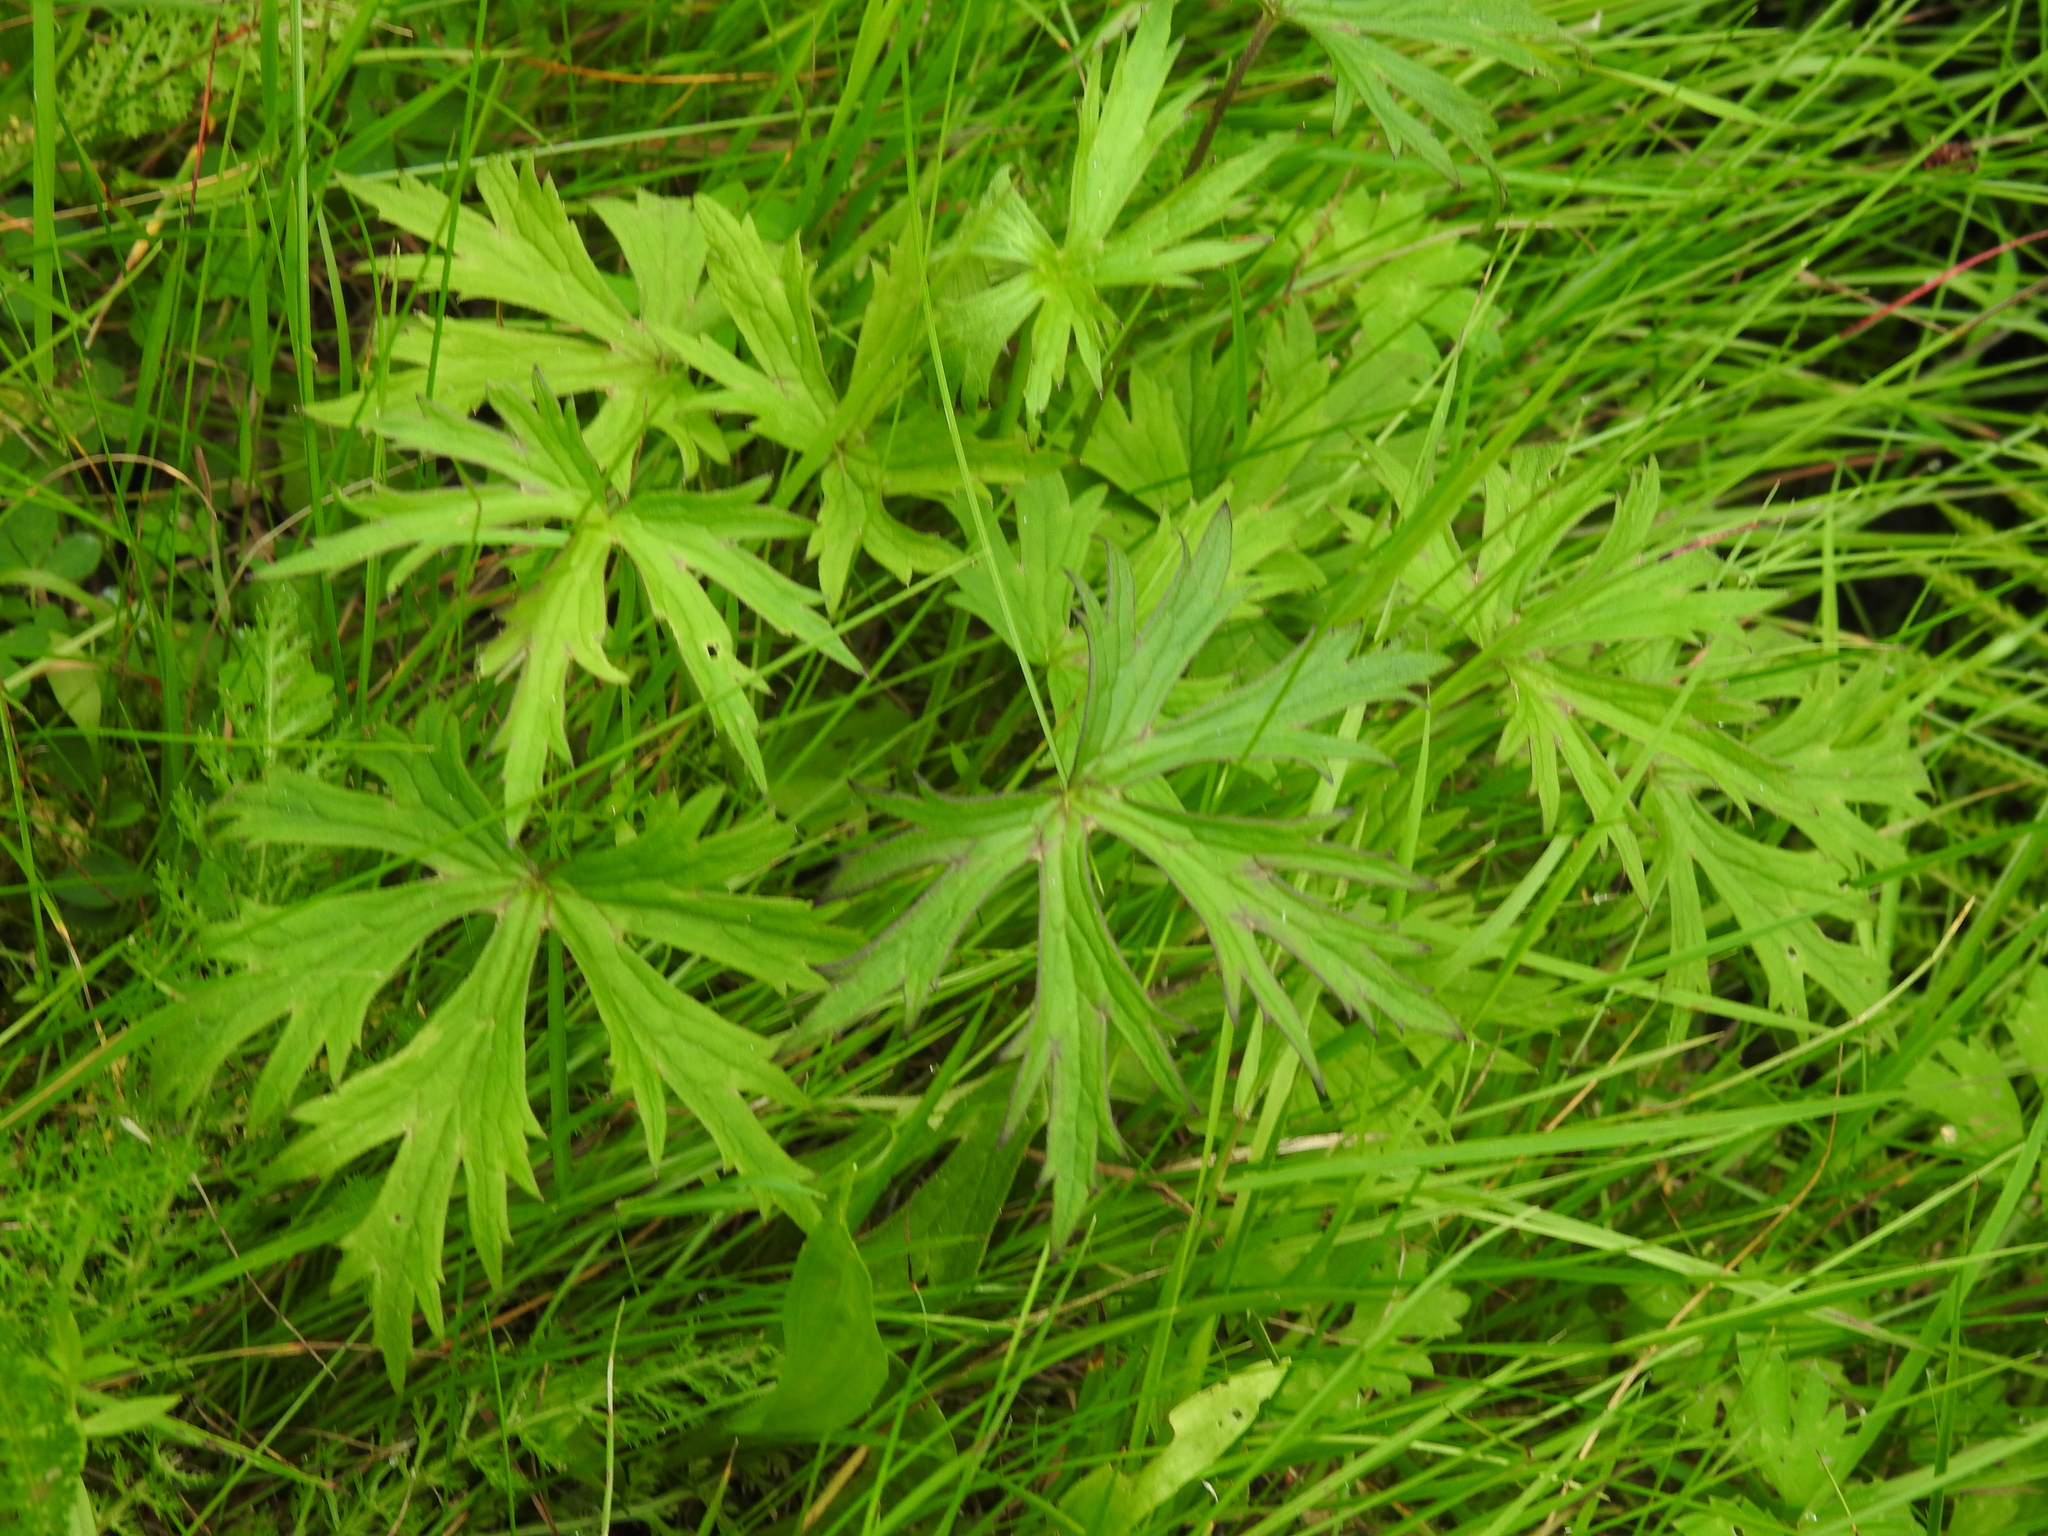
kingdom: Plantae
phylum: Tracheophyta
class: Magnoliopsida
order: Ranunculales
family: Ranunculaceae
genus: Ranunculus
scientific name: Ranunculus acris
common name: Meadow buttercup
